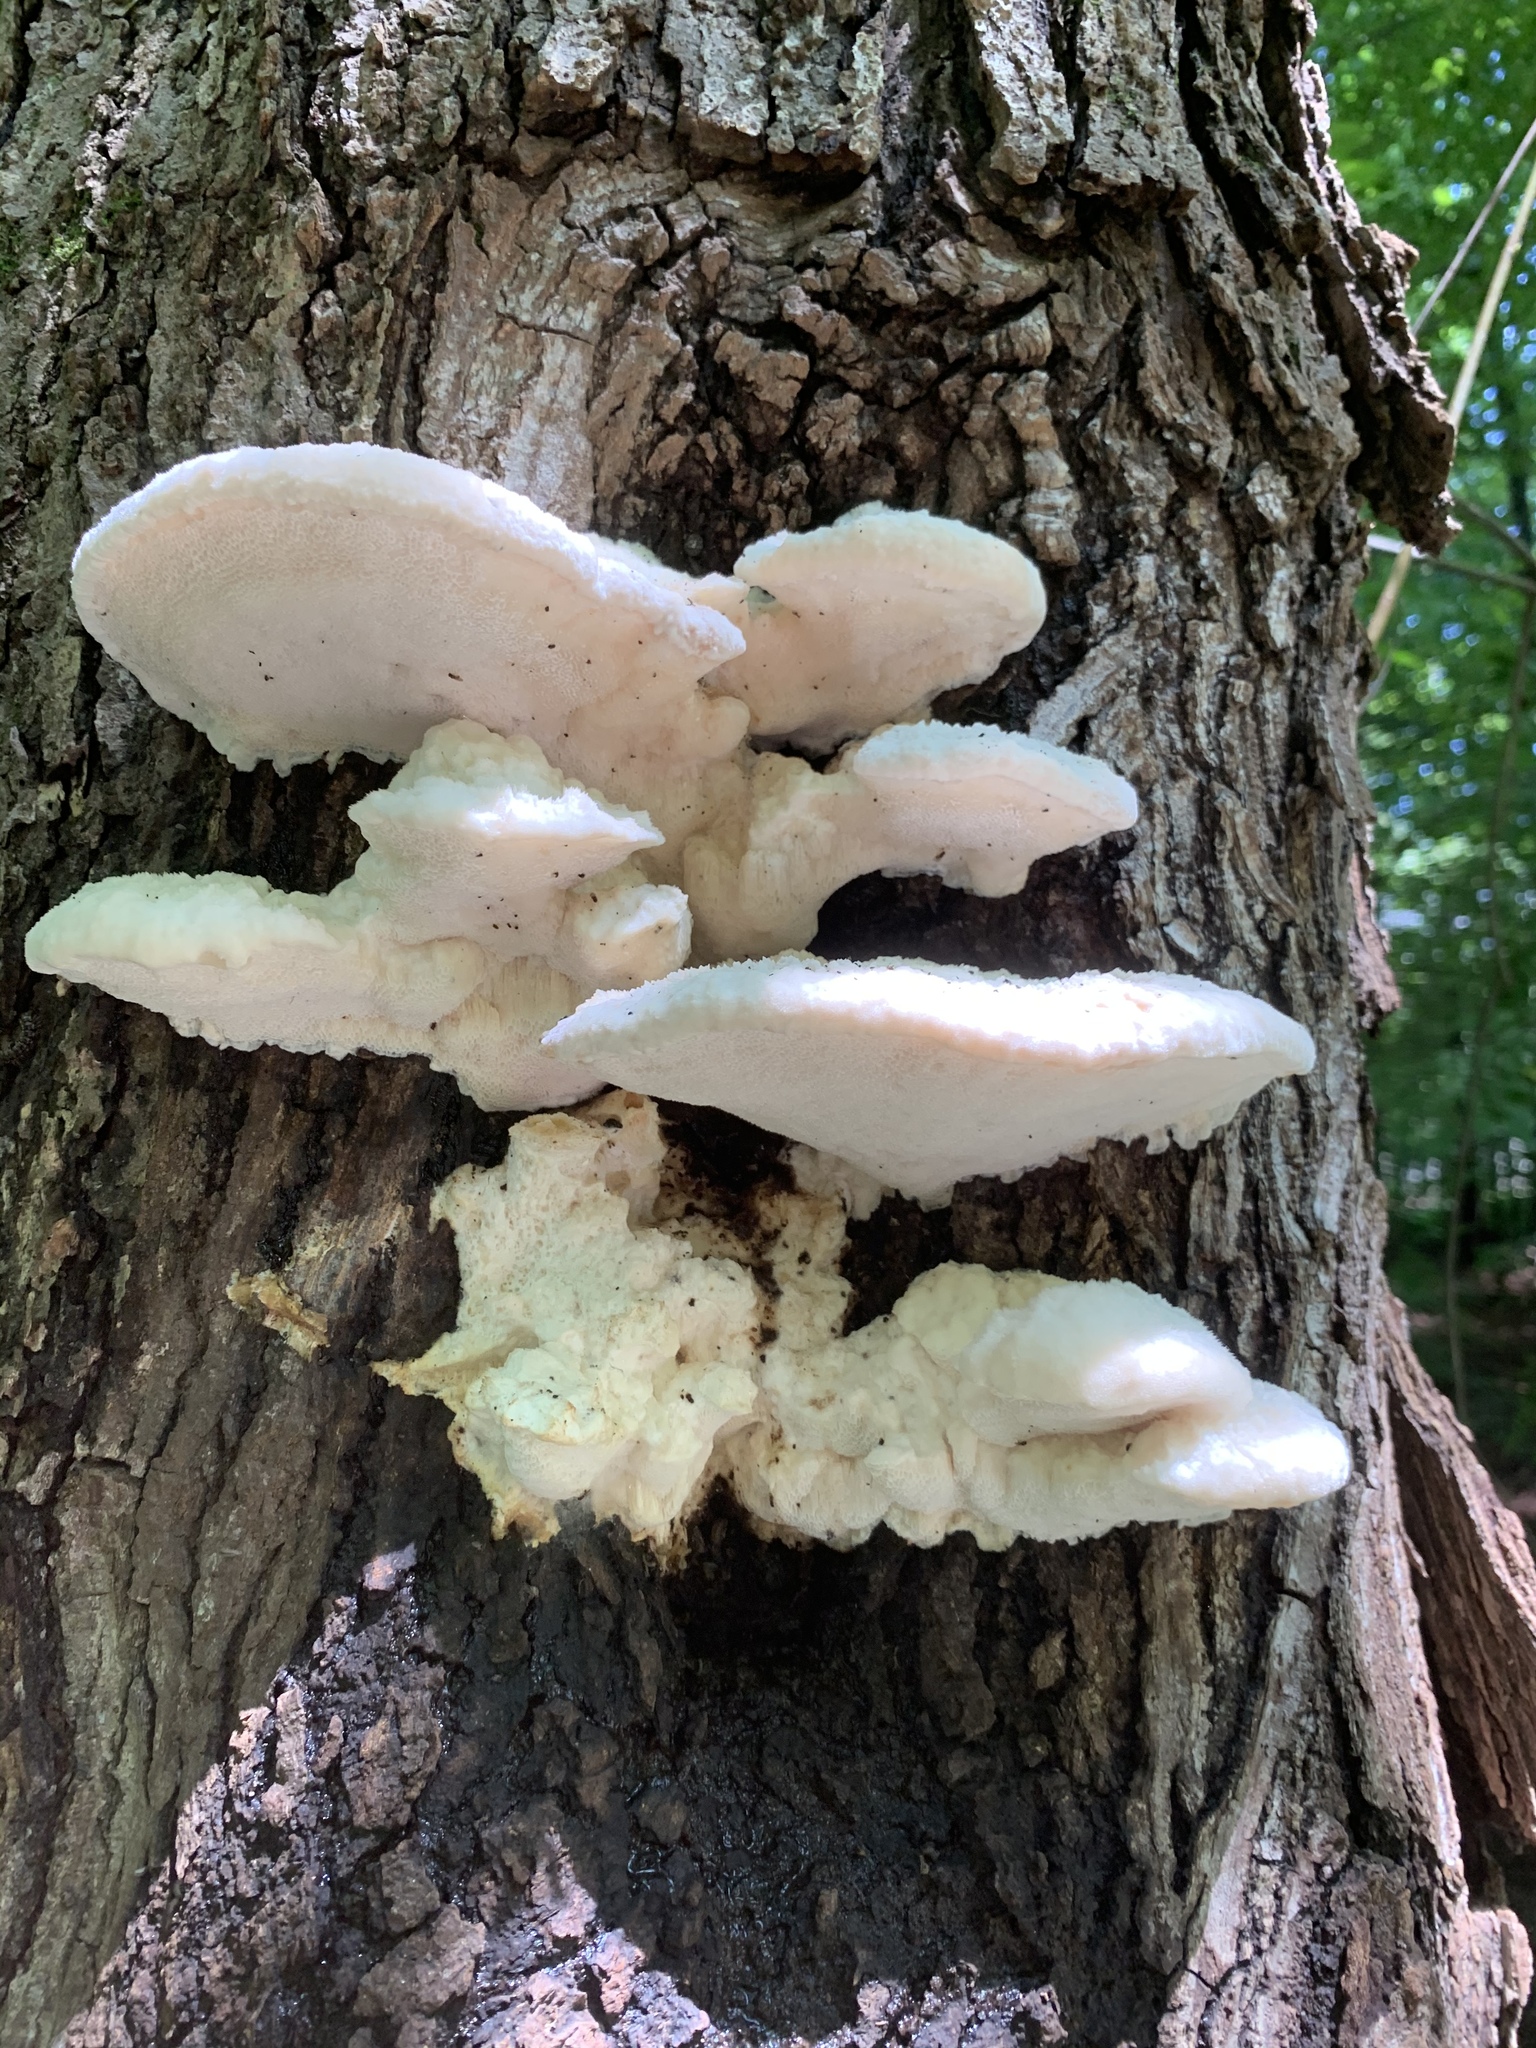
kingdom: Fungi
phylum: Basidiomycota
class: Agaricomycetes
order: Polyporales
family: Meruliaceae
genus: Climacodon
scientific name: Climacodon septentrionalis
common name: Northern tooth
